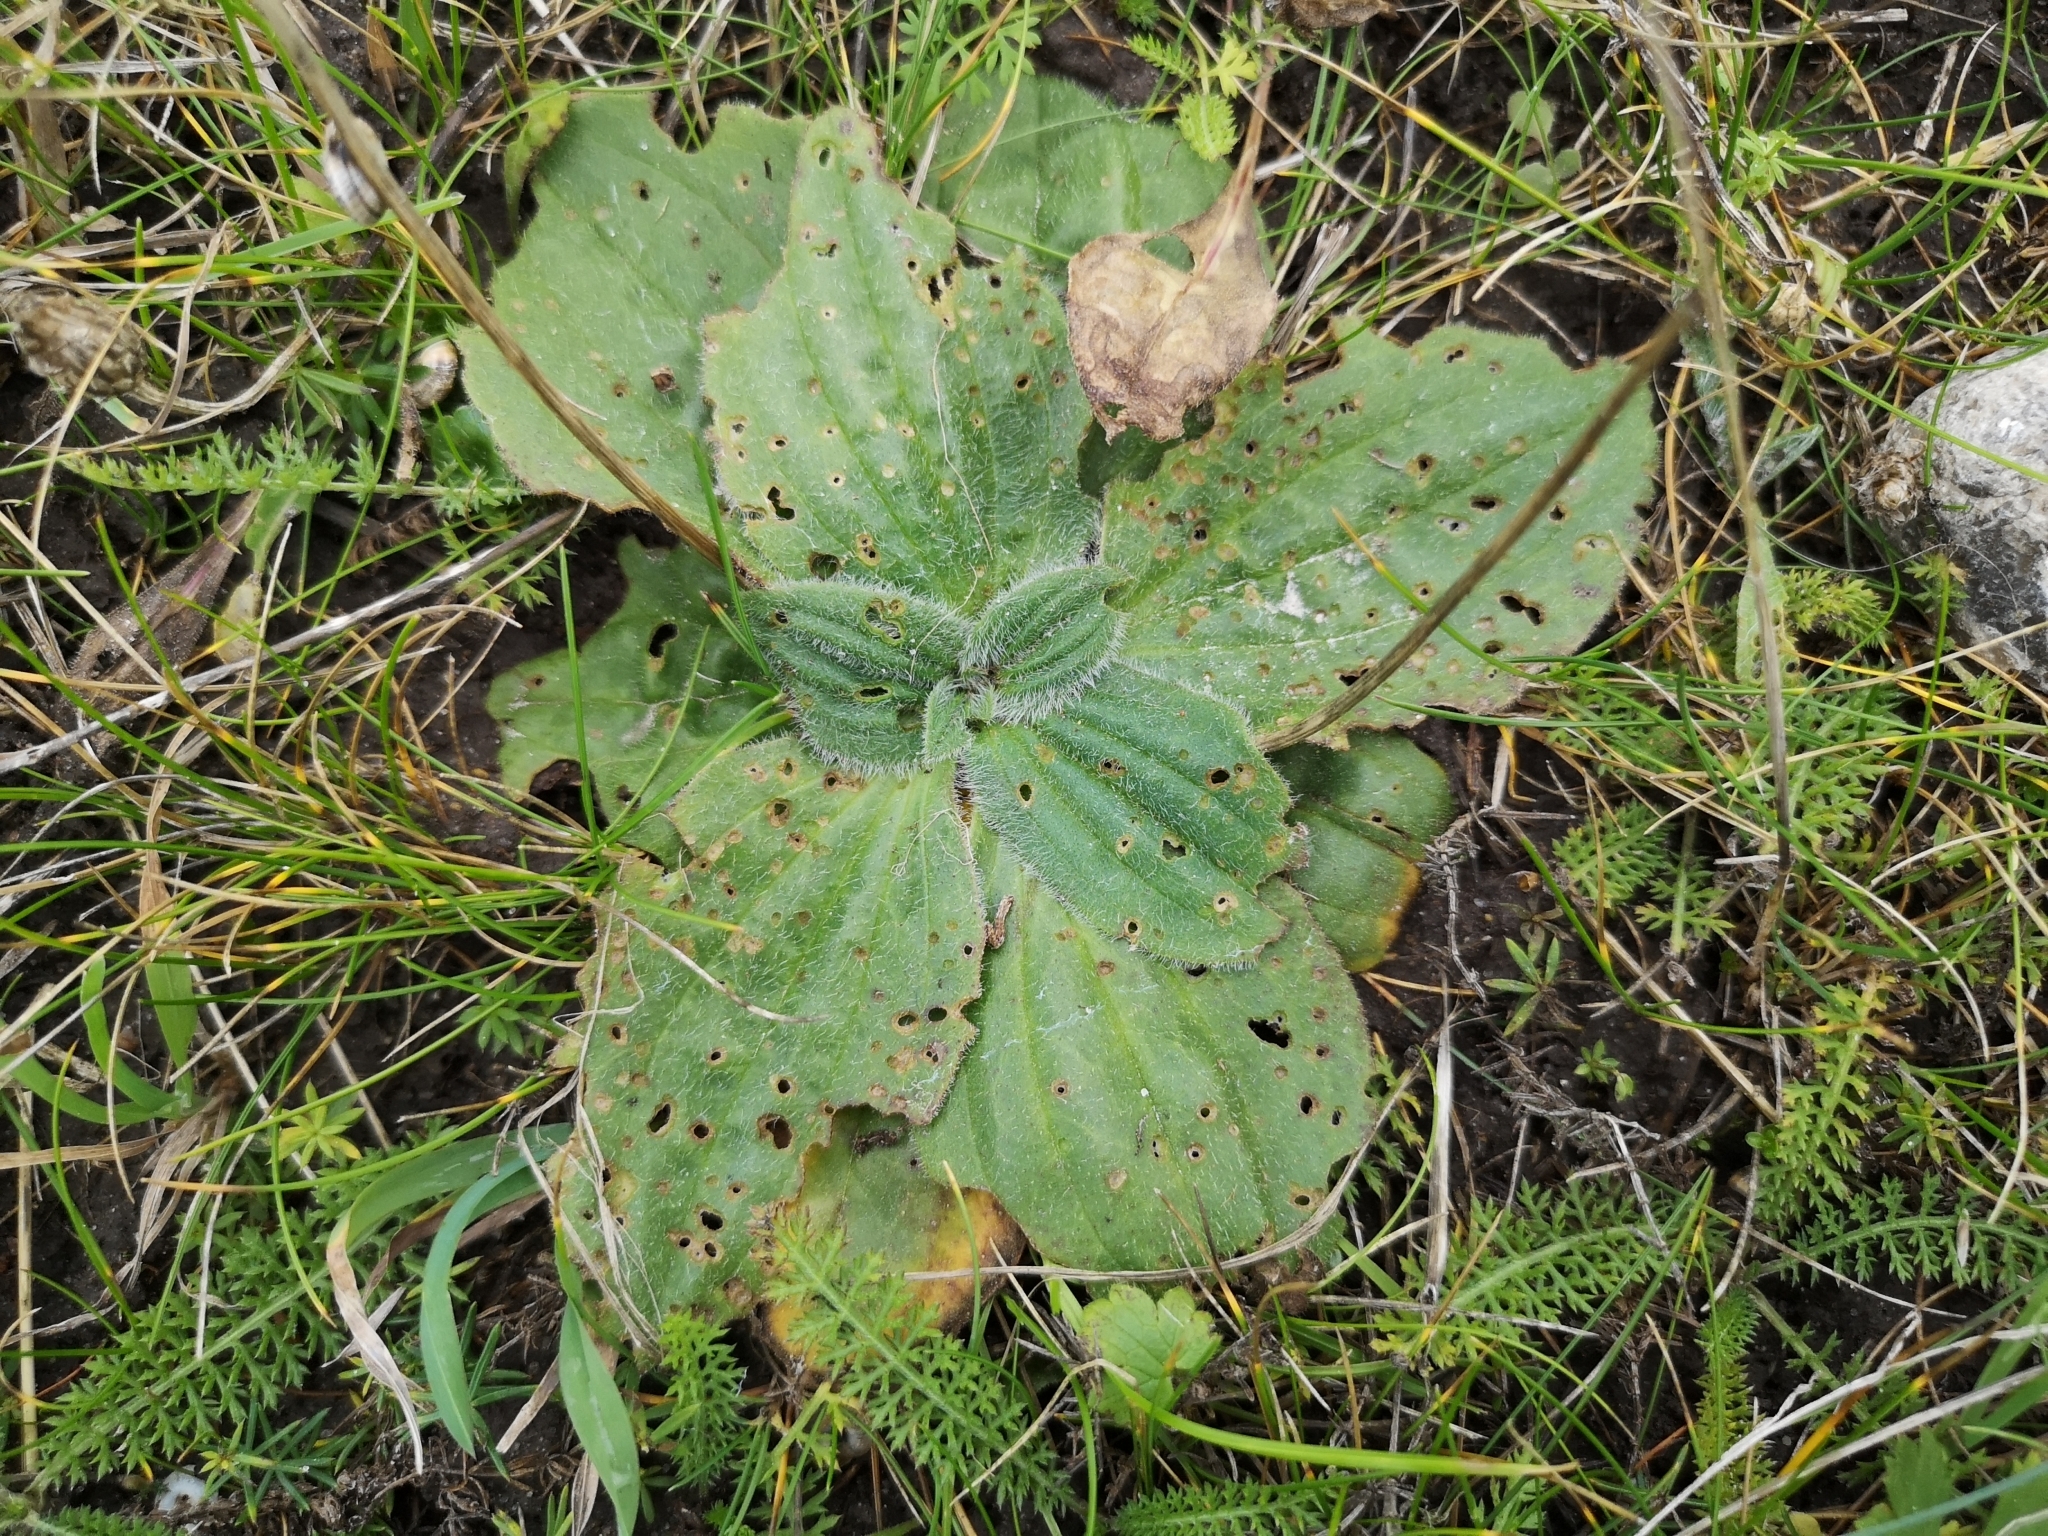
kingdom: Plantae
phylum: Tracheophyta
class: Magnoliopsida
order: Lamiales
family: Plantaginaceae
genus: Plantago
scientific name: Plantago media
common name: Hoary plantain
